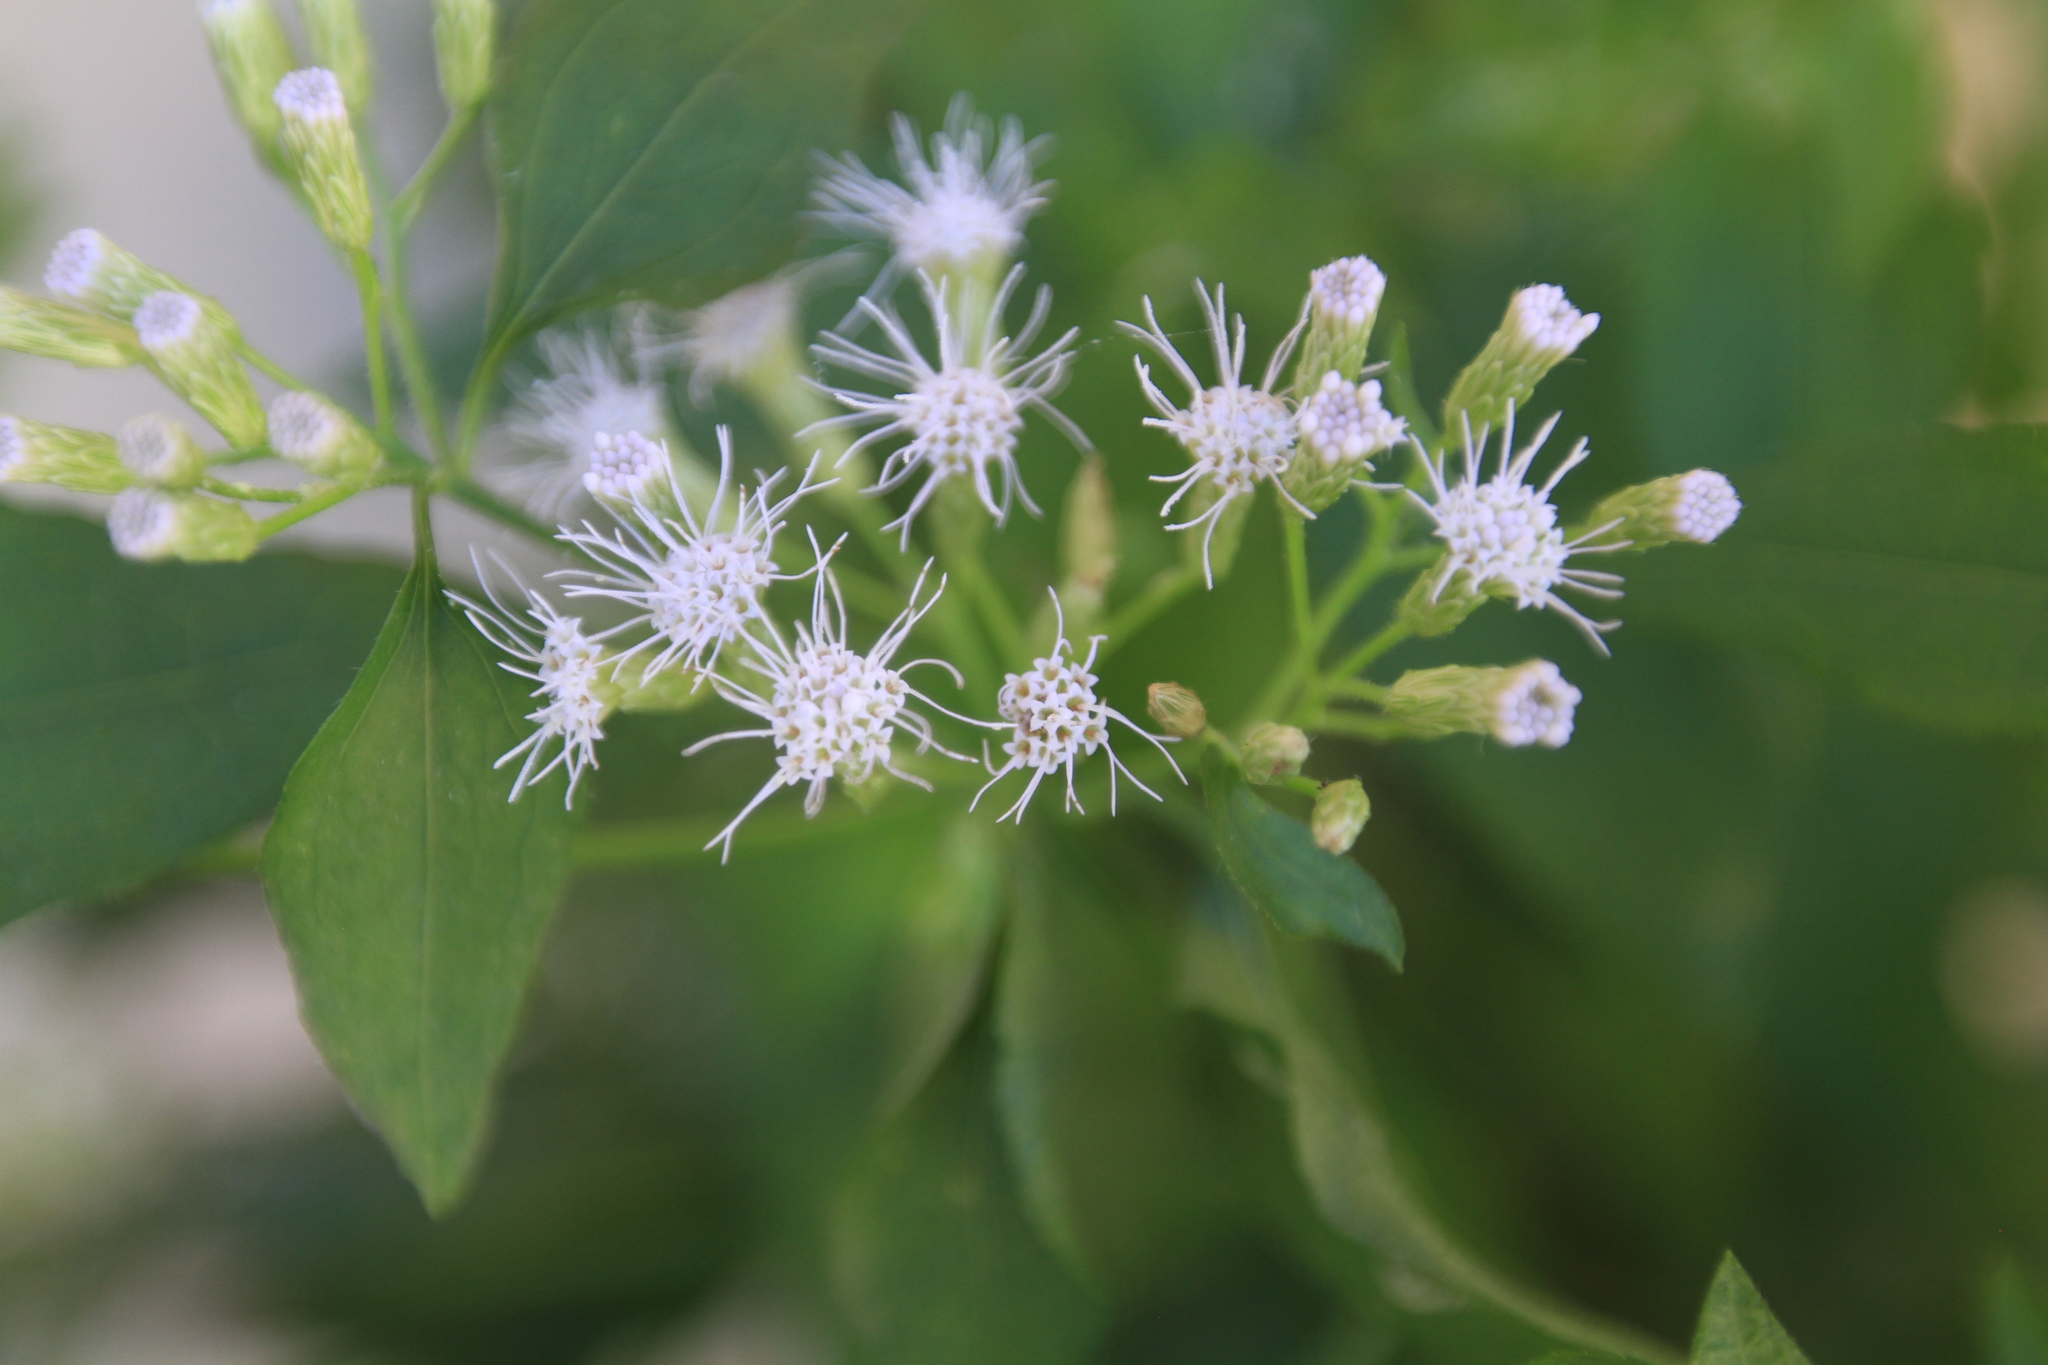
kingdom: Plantae
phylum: Tracheophyta
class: Magnoliopsida
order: Asterales
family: Asteraceae
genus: Chromolaena
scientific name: Chromolaena odorata
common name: Siamweed
